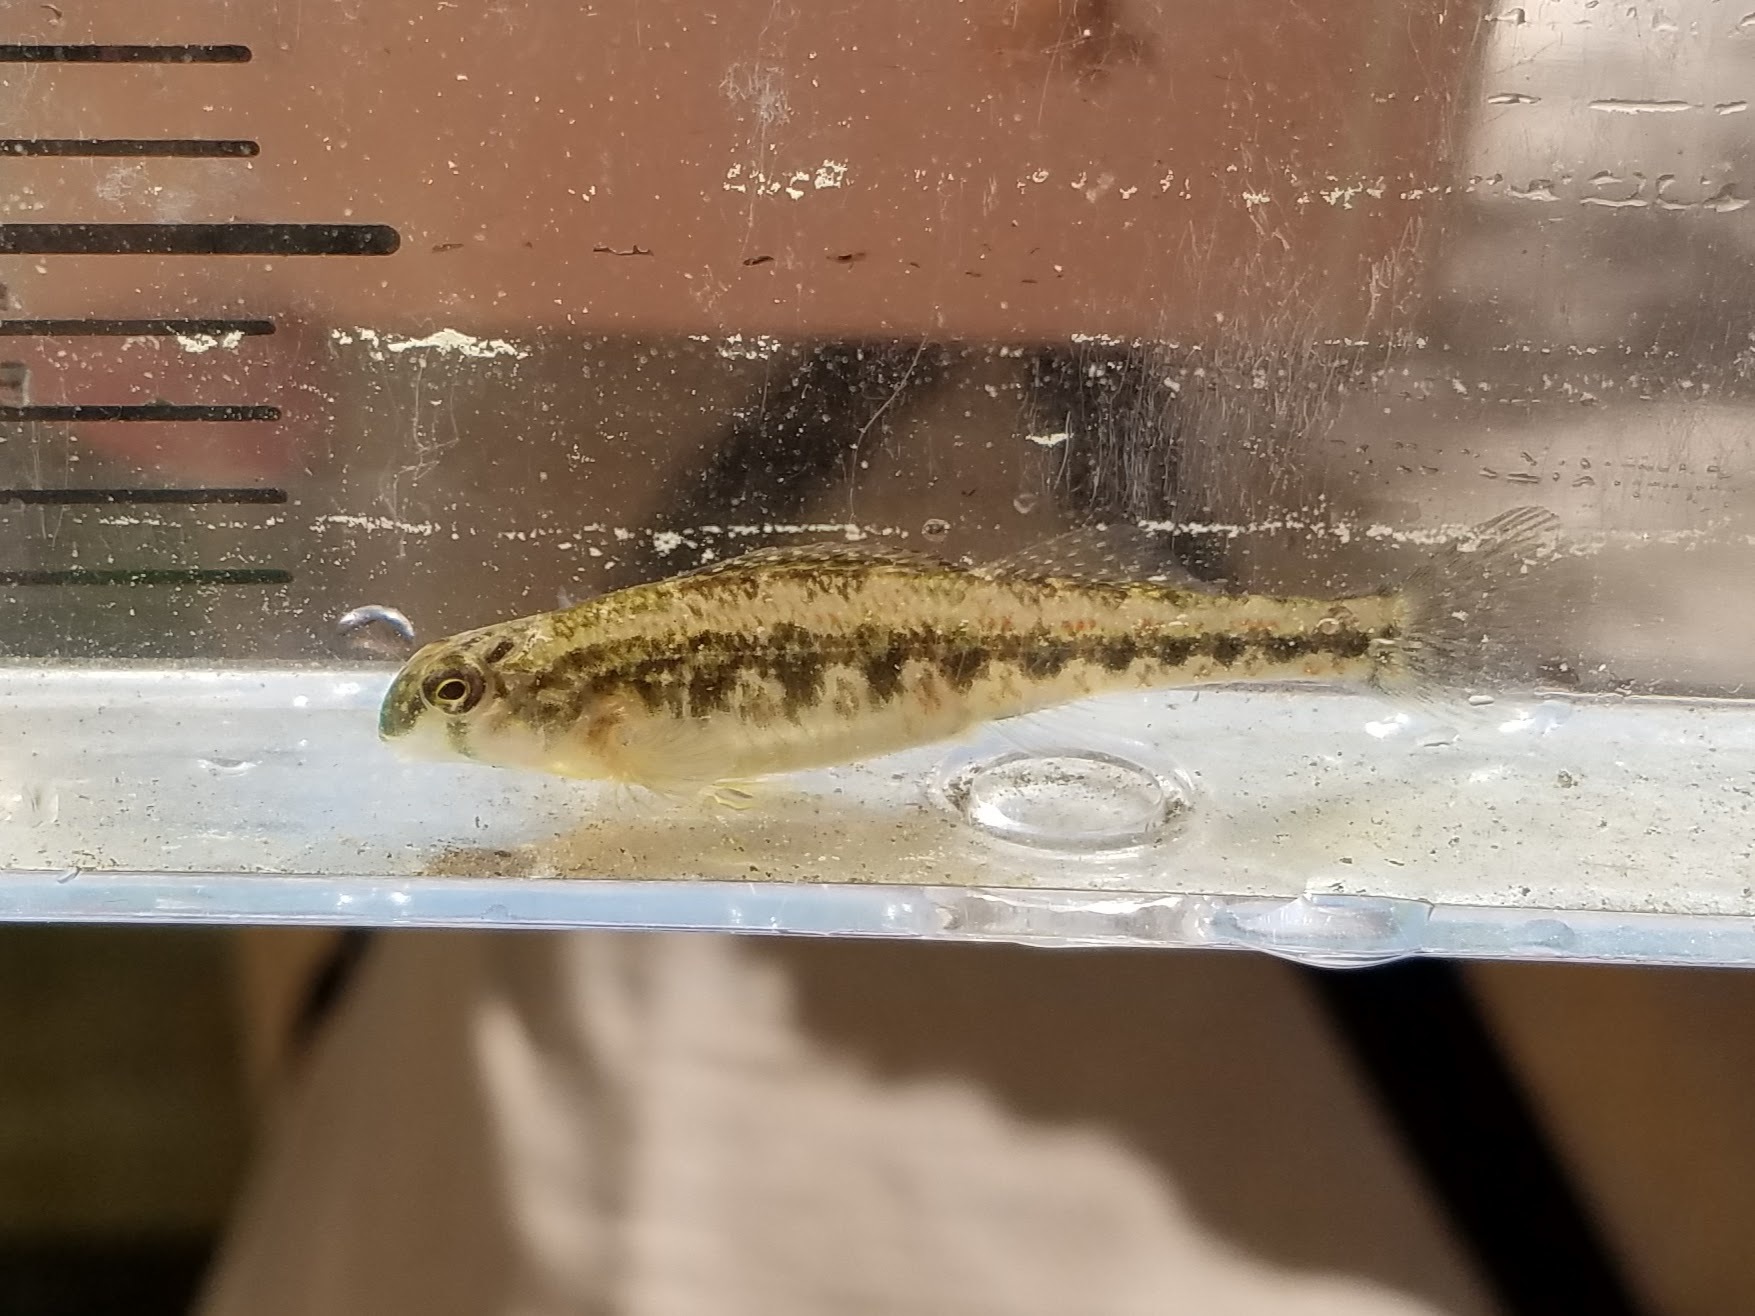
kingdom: Animalia
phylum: Chordata
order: Perciformes
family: Percidae
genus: Etheostoma
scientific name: Etheostoma simoterum
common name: Snubnose darter
